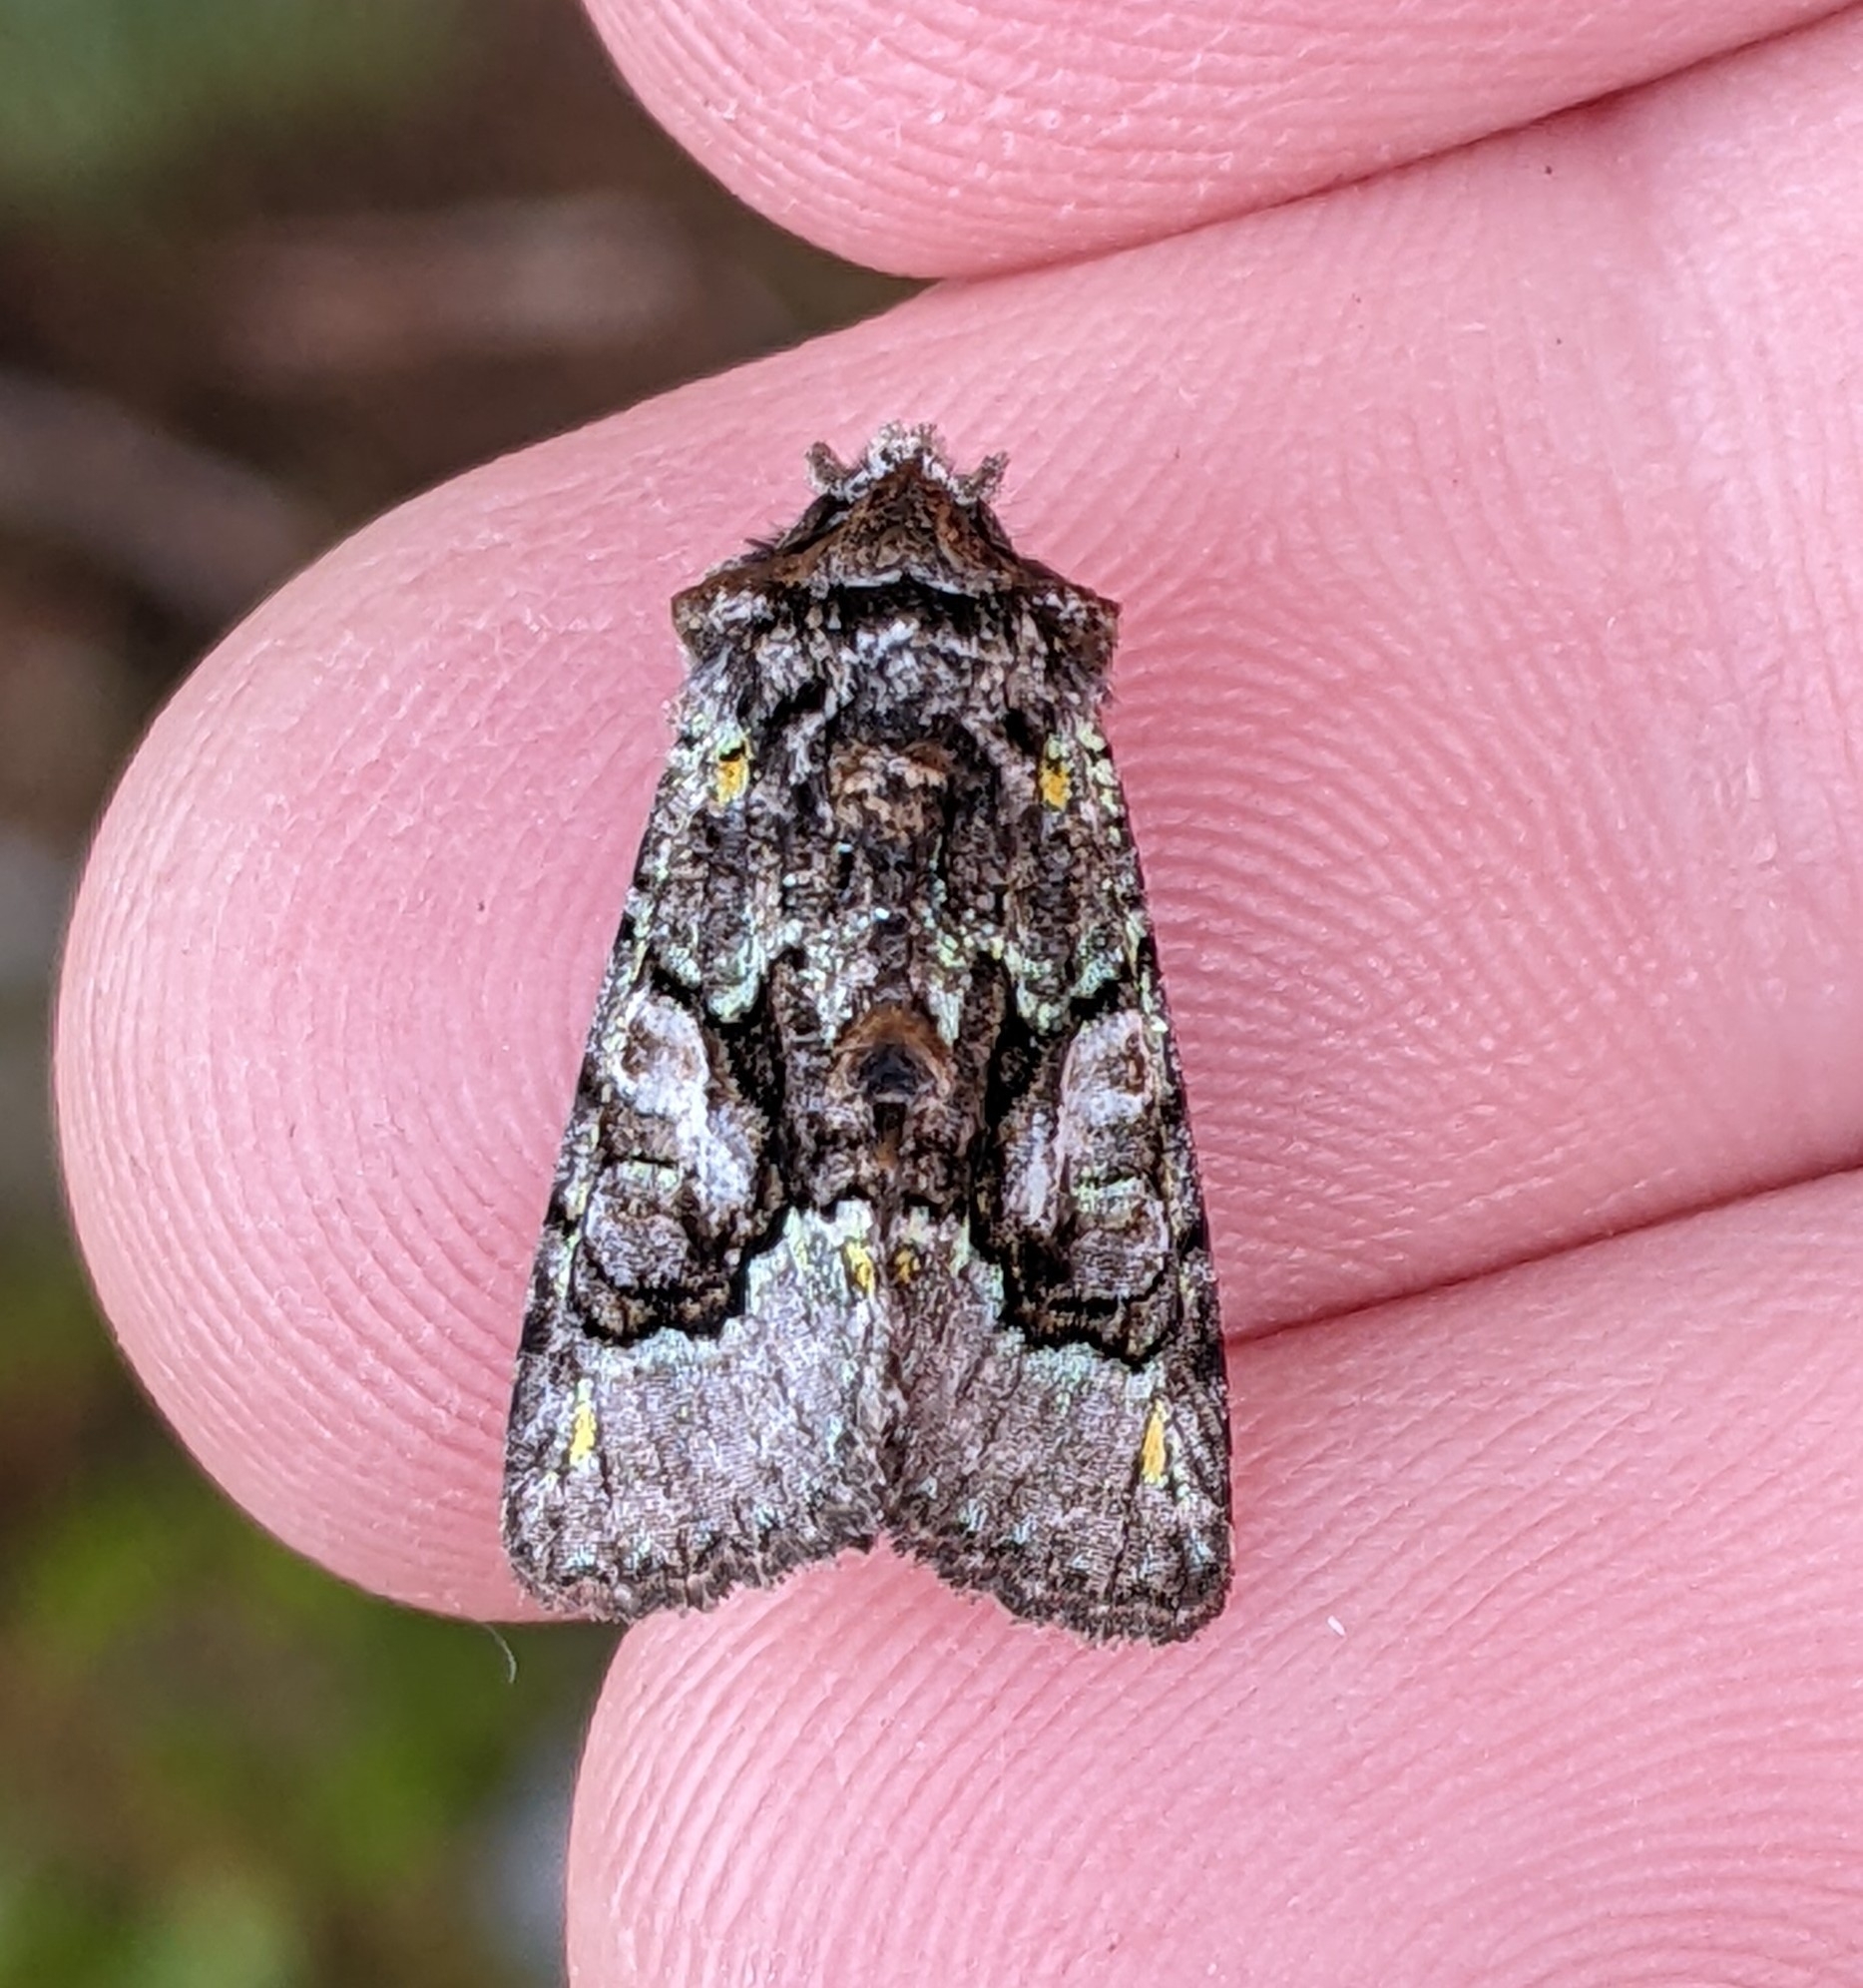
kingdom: Animalia
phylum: Arthropoda
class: Insecta
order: Lepidoptera
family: Noctuidae
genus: Behrensia
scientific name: Behrensia conchiformis
